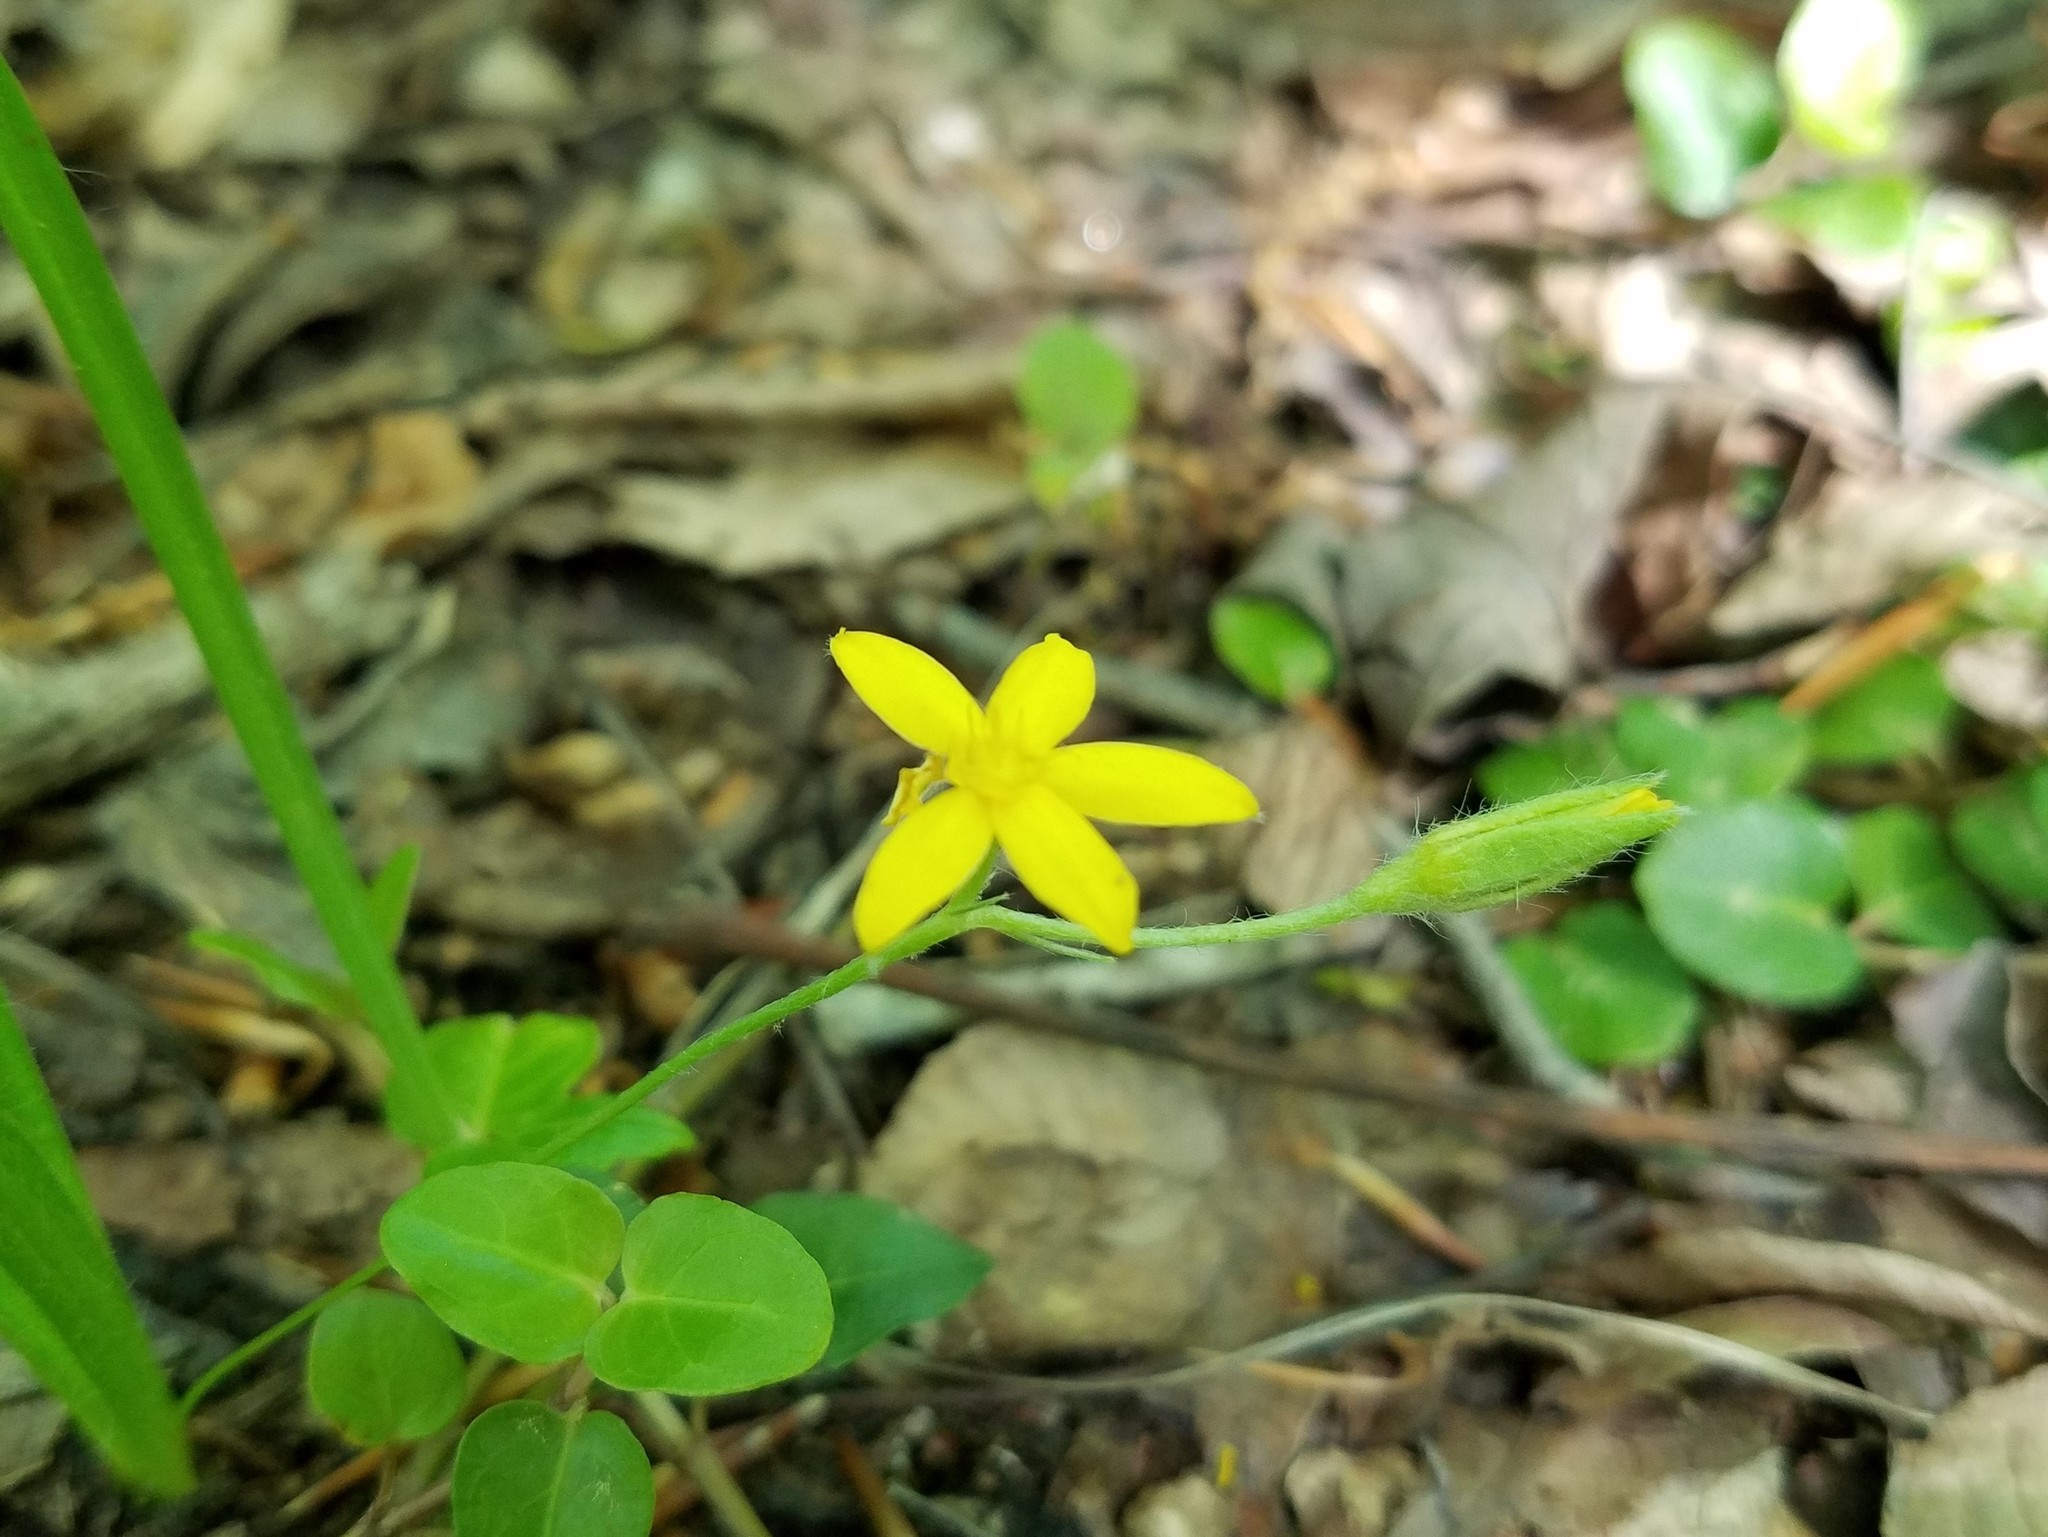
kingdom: Plantae
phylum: Tracheophyta
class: Liliopsida
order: Asparagales
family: Hypoxidaceae
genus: Hypoxis
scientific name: Hypoxis hirsuta
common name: Common goldstar
